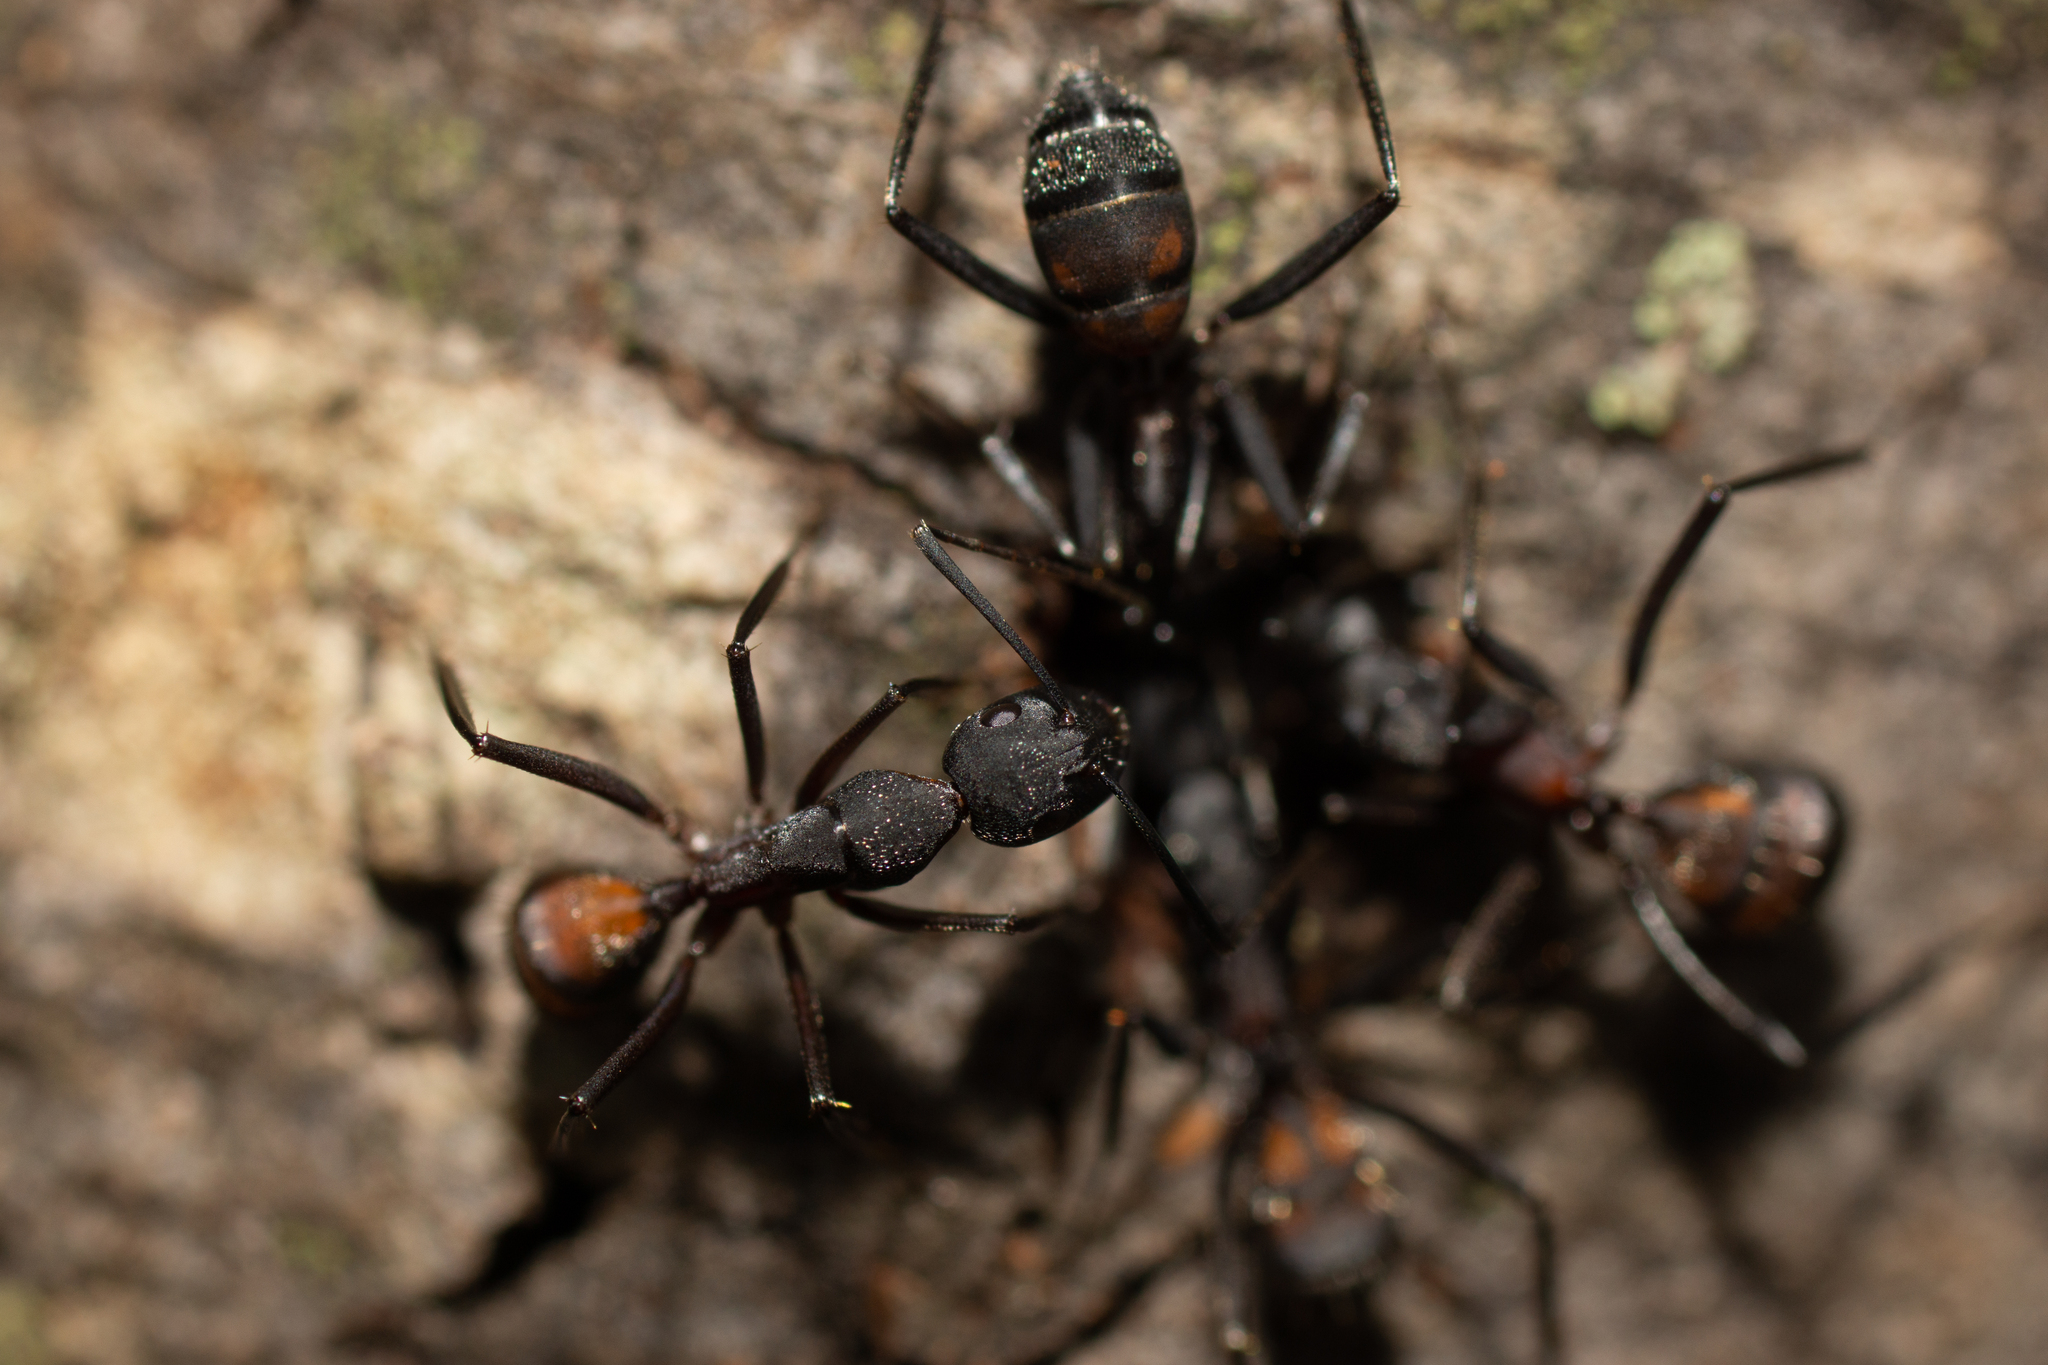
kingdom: Animalia
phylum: Arthropoda
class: Insecta
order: Hymenoptera
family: Formicidae
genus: Camponotus
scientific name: Camponotus cruentatus
